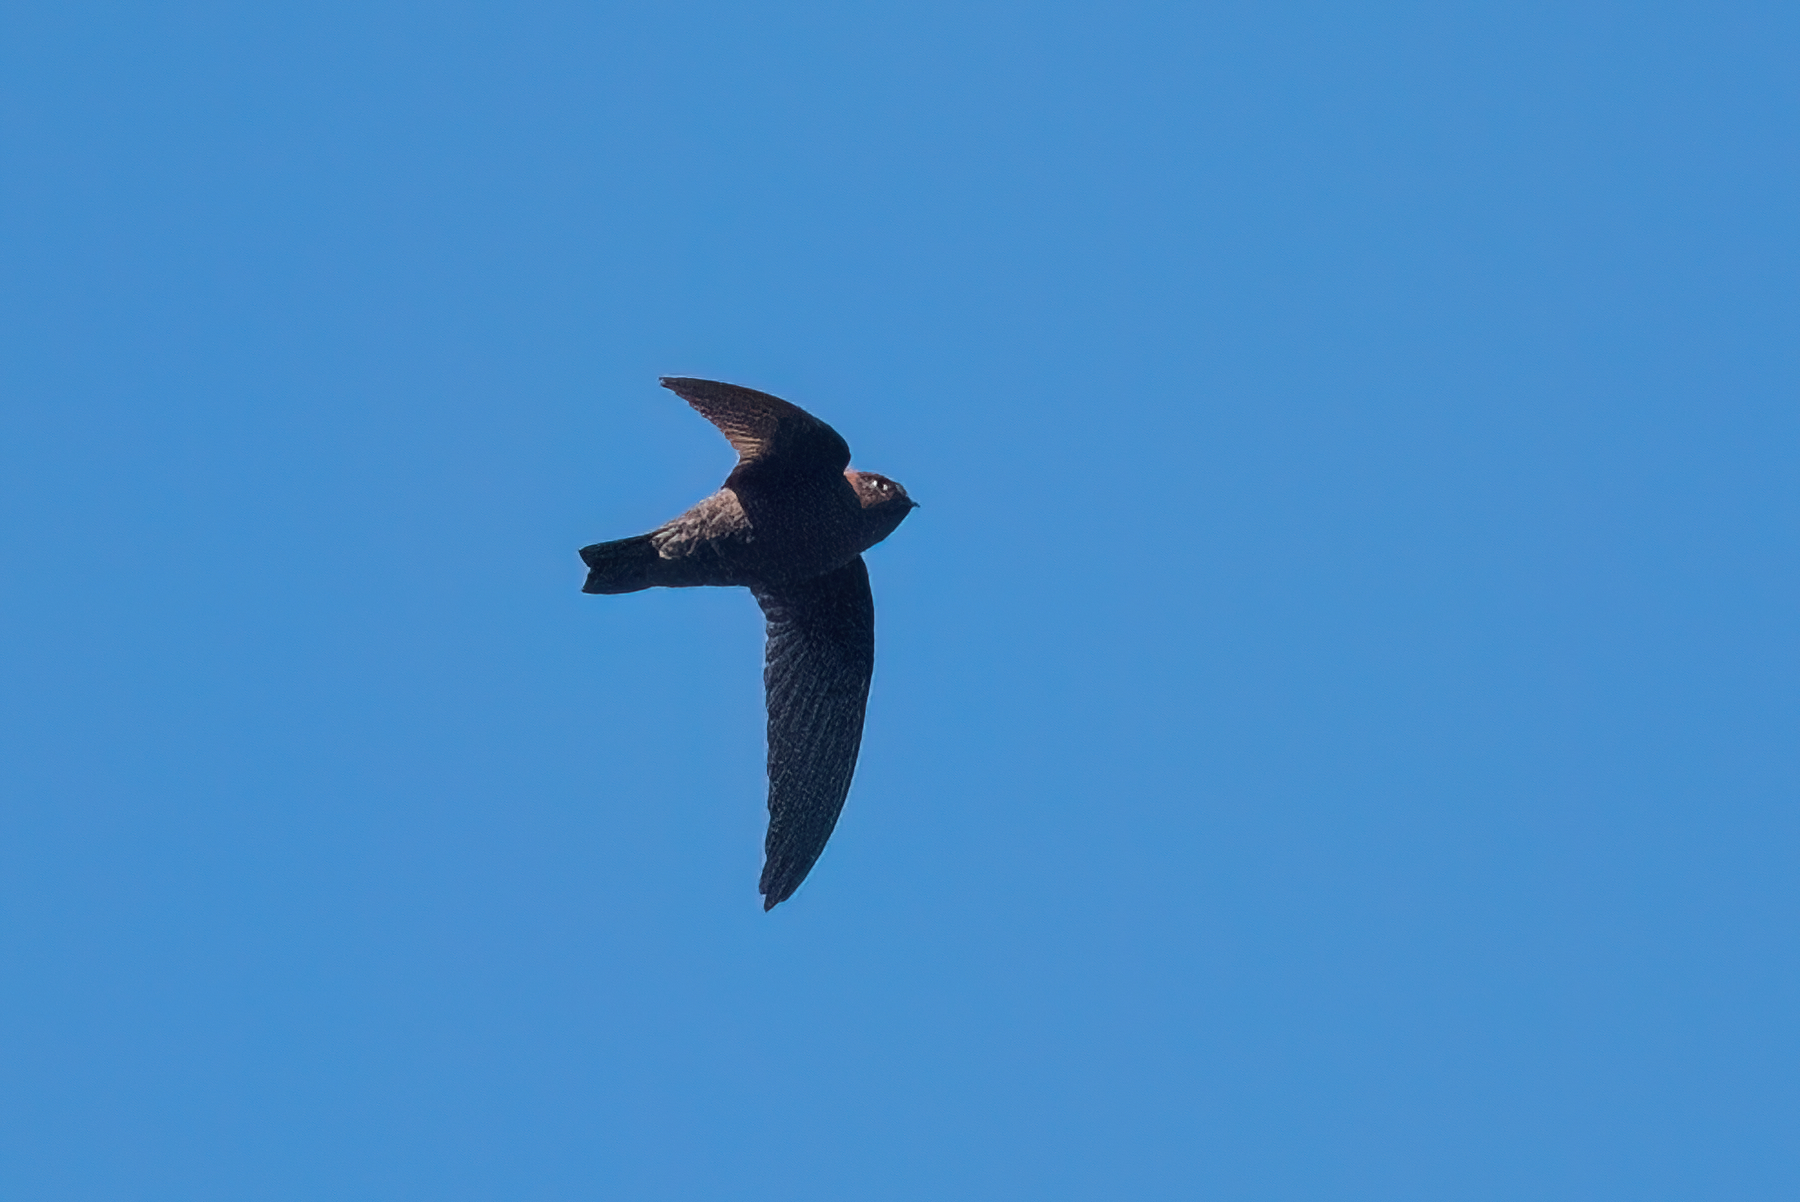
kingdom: Animalia
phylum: Chordata
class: Aves
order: Apodiformes
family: Apodidae
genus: Streptoprocne
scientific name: Streptoprocne rutila
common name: Chestnut-collared swift
